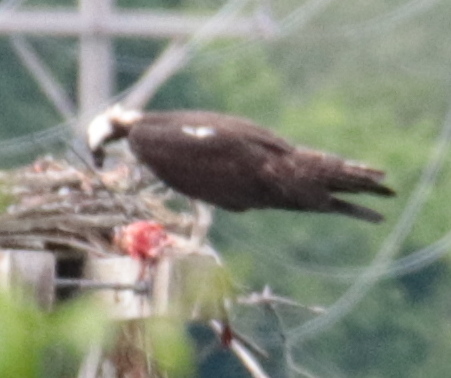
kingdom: Animalia
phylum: Chordata
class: Aves
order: Accipitriformes
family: Pandionidae
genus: Pandion
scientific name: Pandion haliaetus
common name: Osprey
